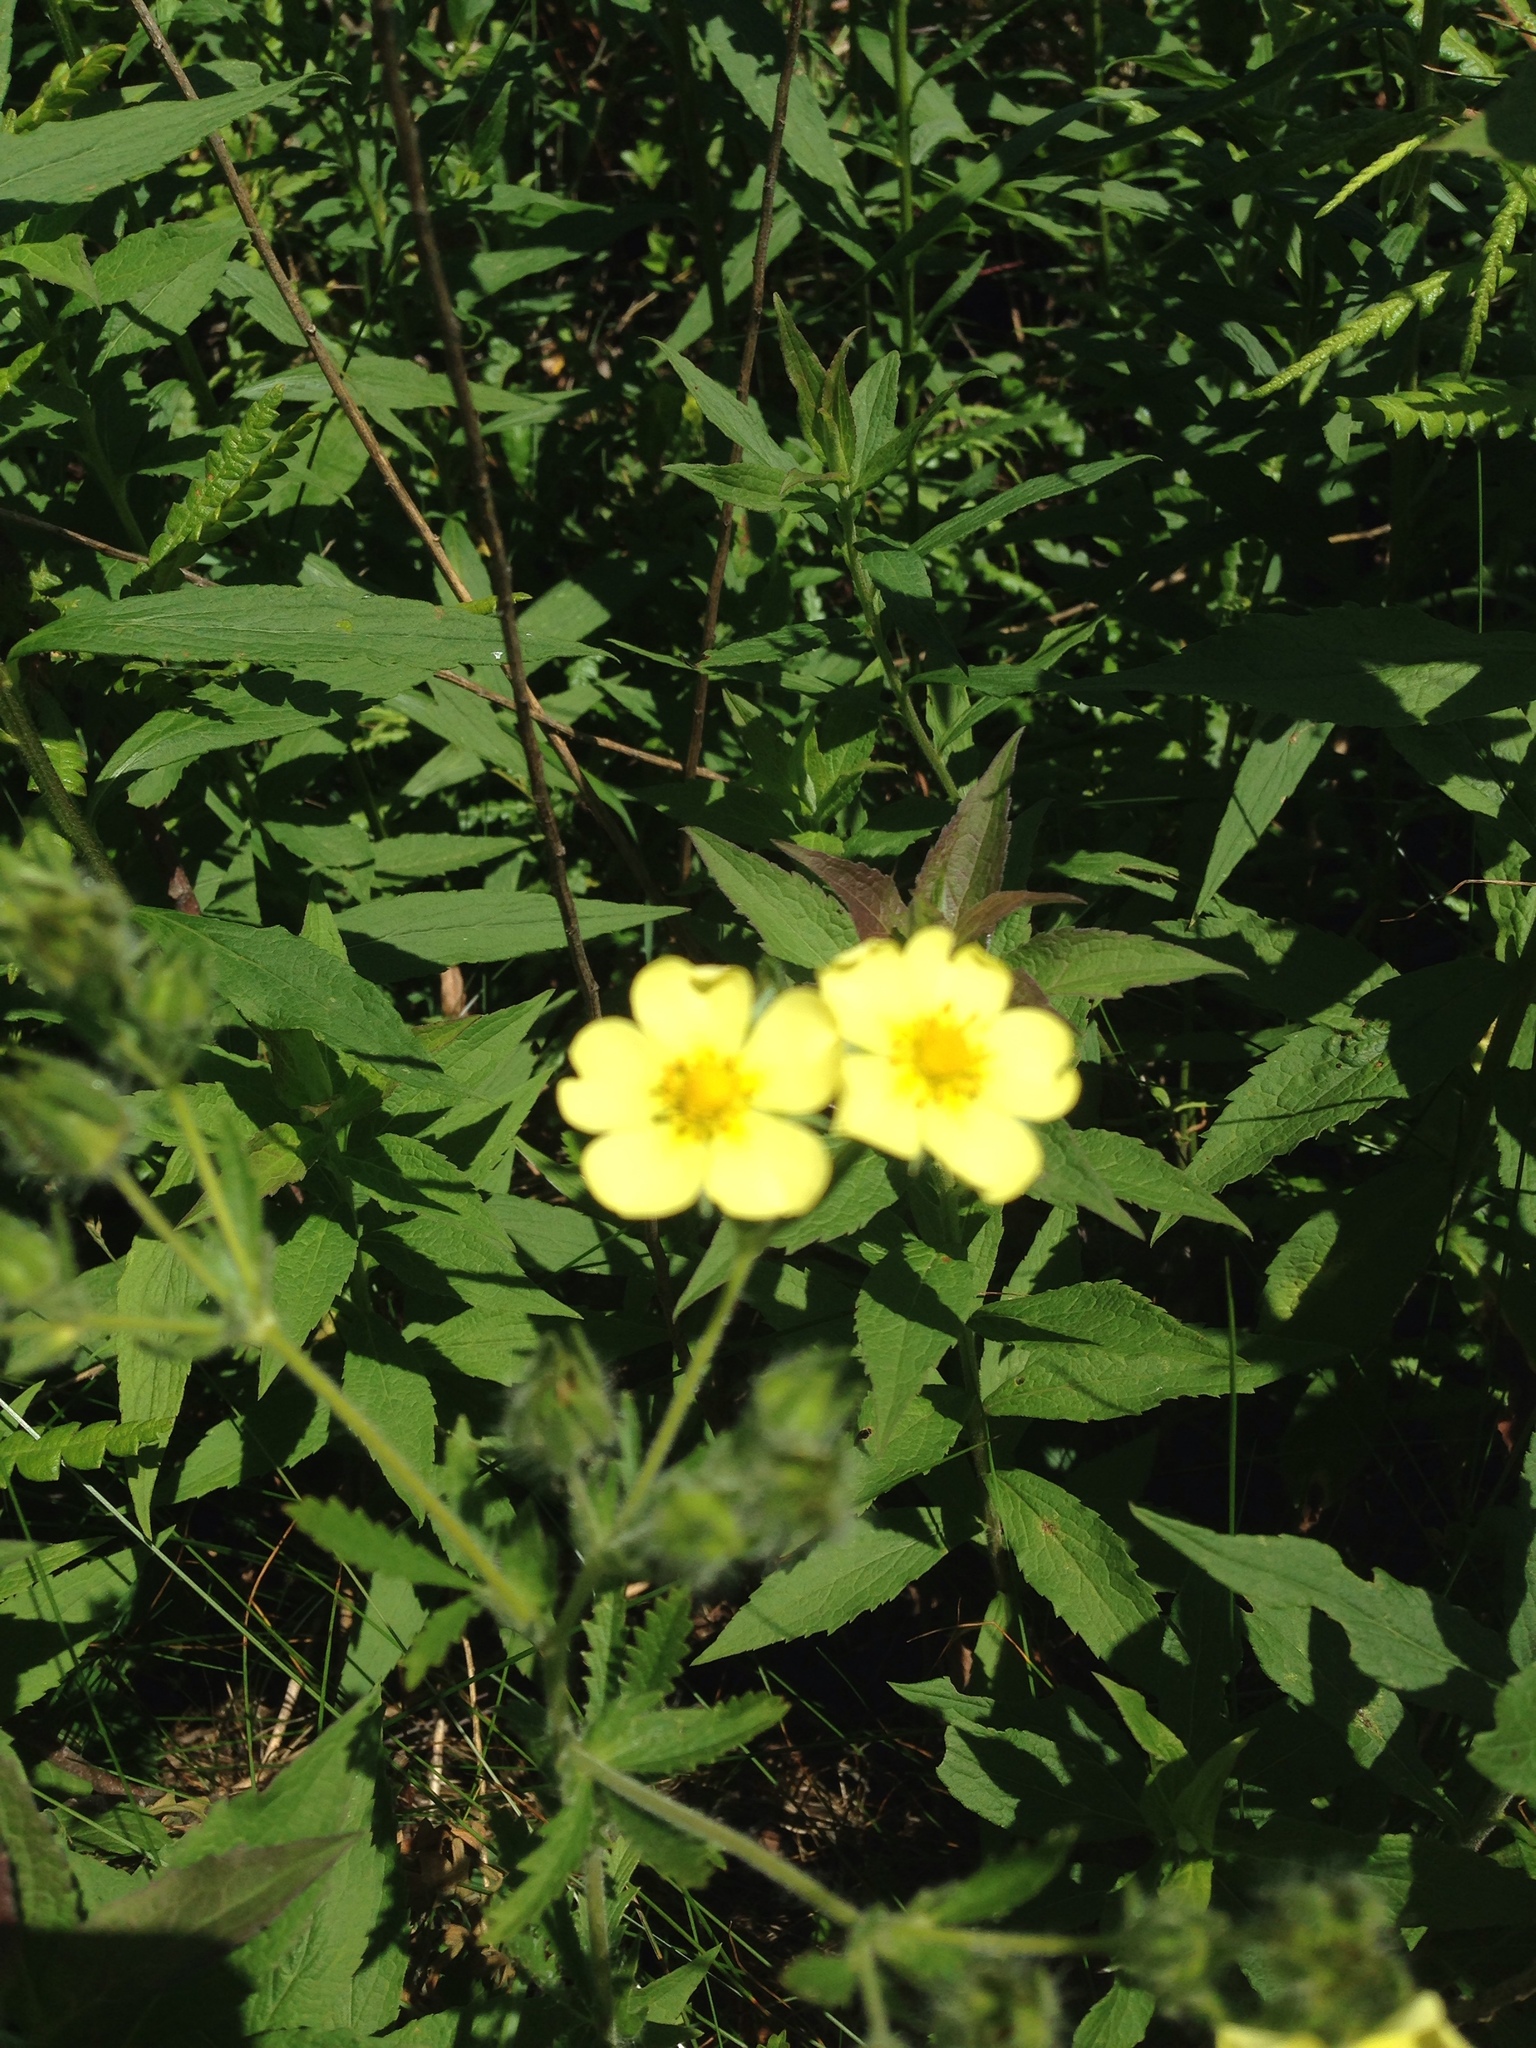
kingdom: Plantae
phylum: Tracheophyta
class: Magnoliopsida
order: Rosales
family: Rosaceae
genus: Potentilla
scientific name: Potentilla recta
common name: Sulphur cinquefoil
